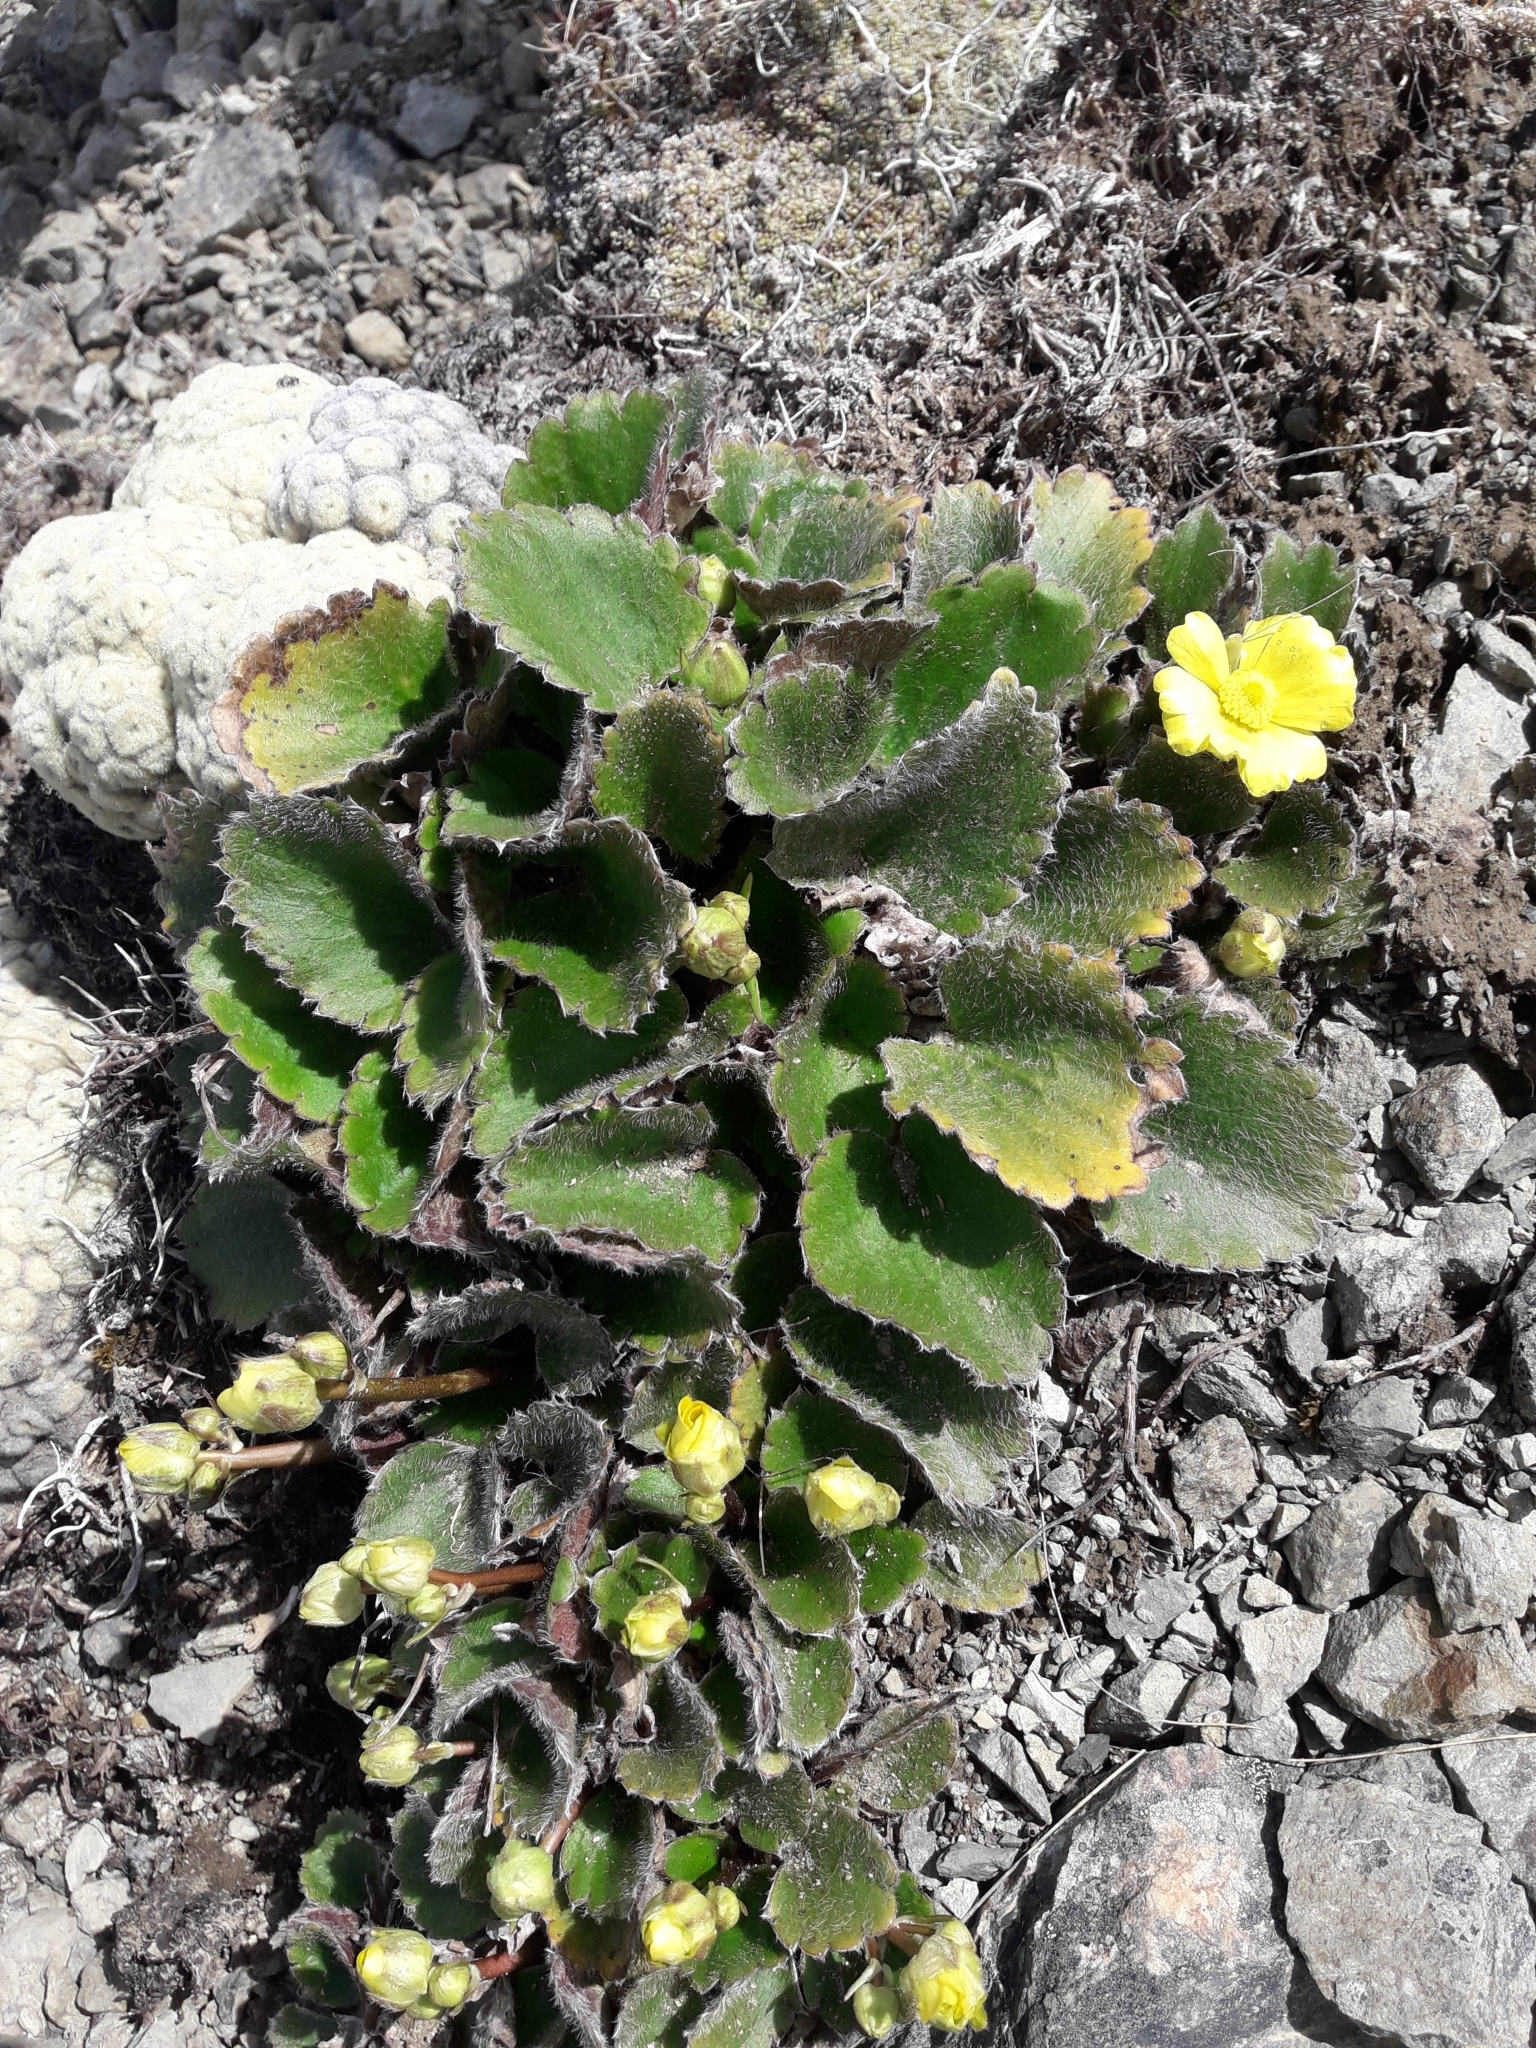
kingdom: Plantae
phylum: Tracheophyta
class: Magnoliopsida
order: Ranunculales
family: Ranunculaceae
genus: Ranunculus
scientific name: Ranunculus insignis
